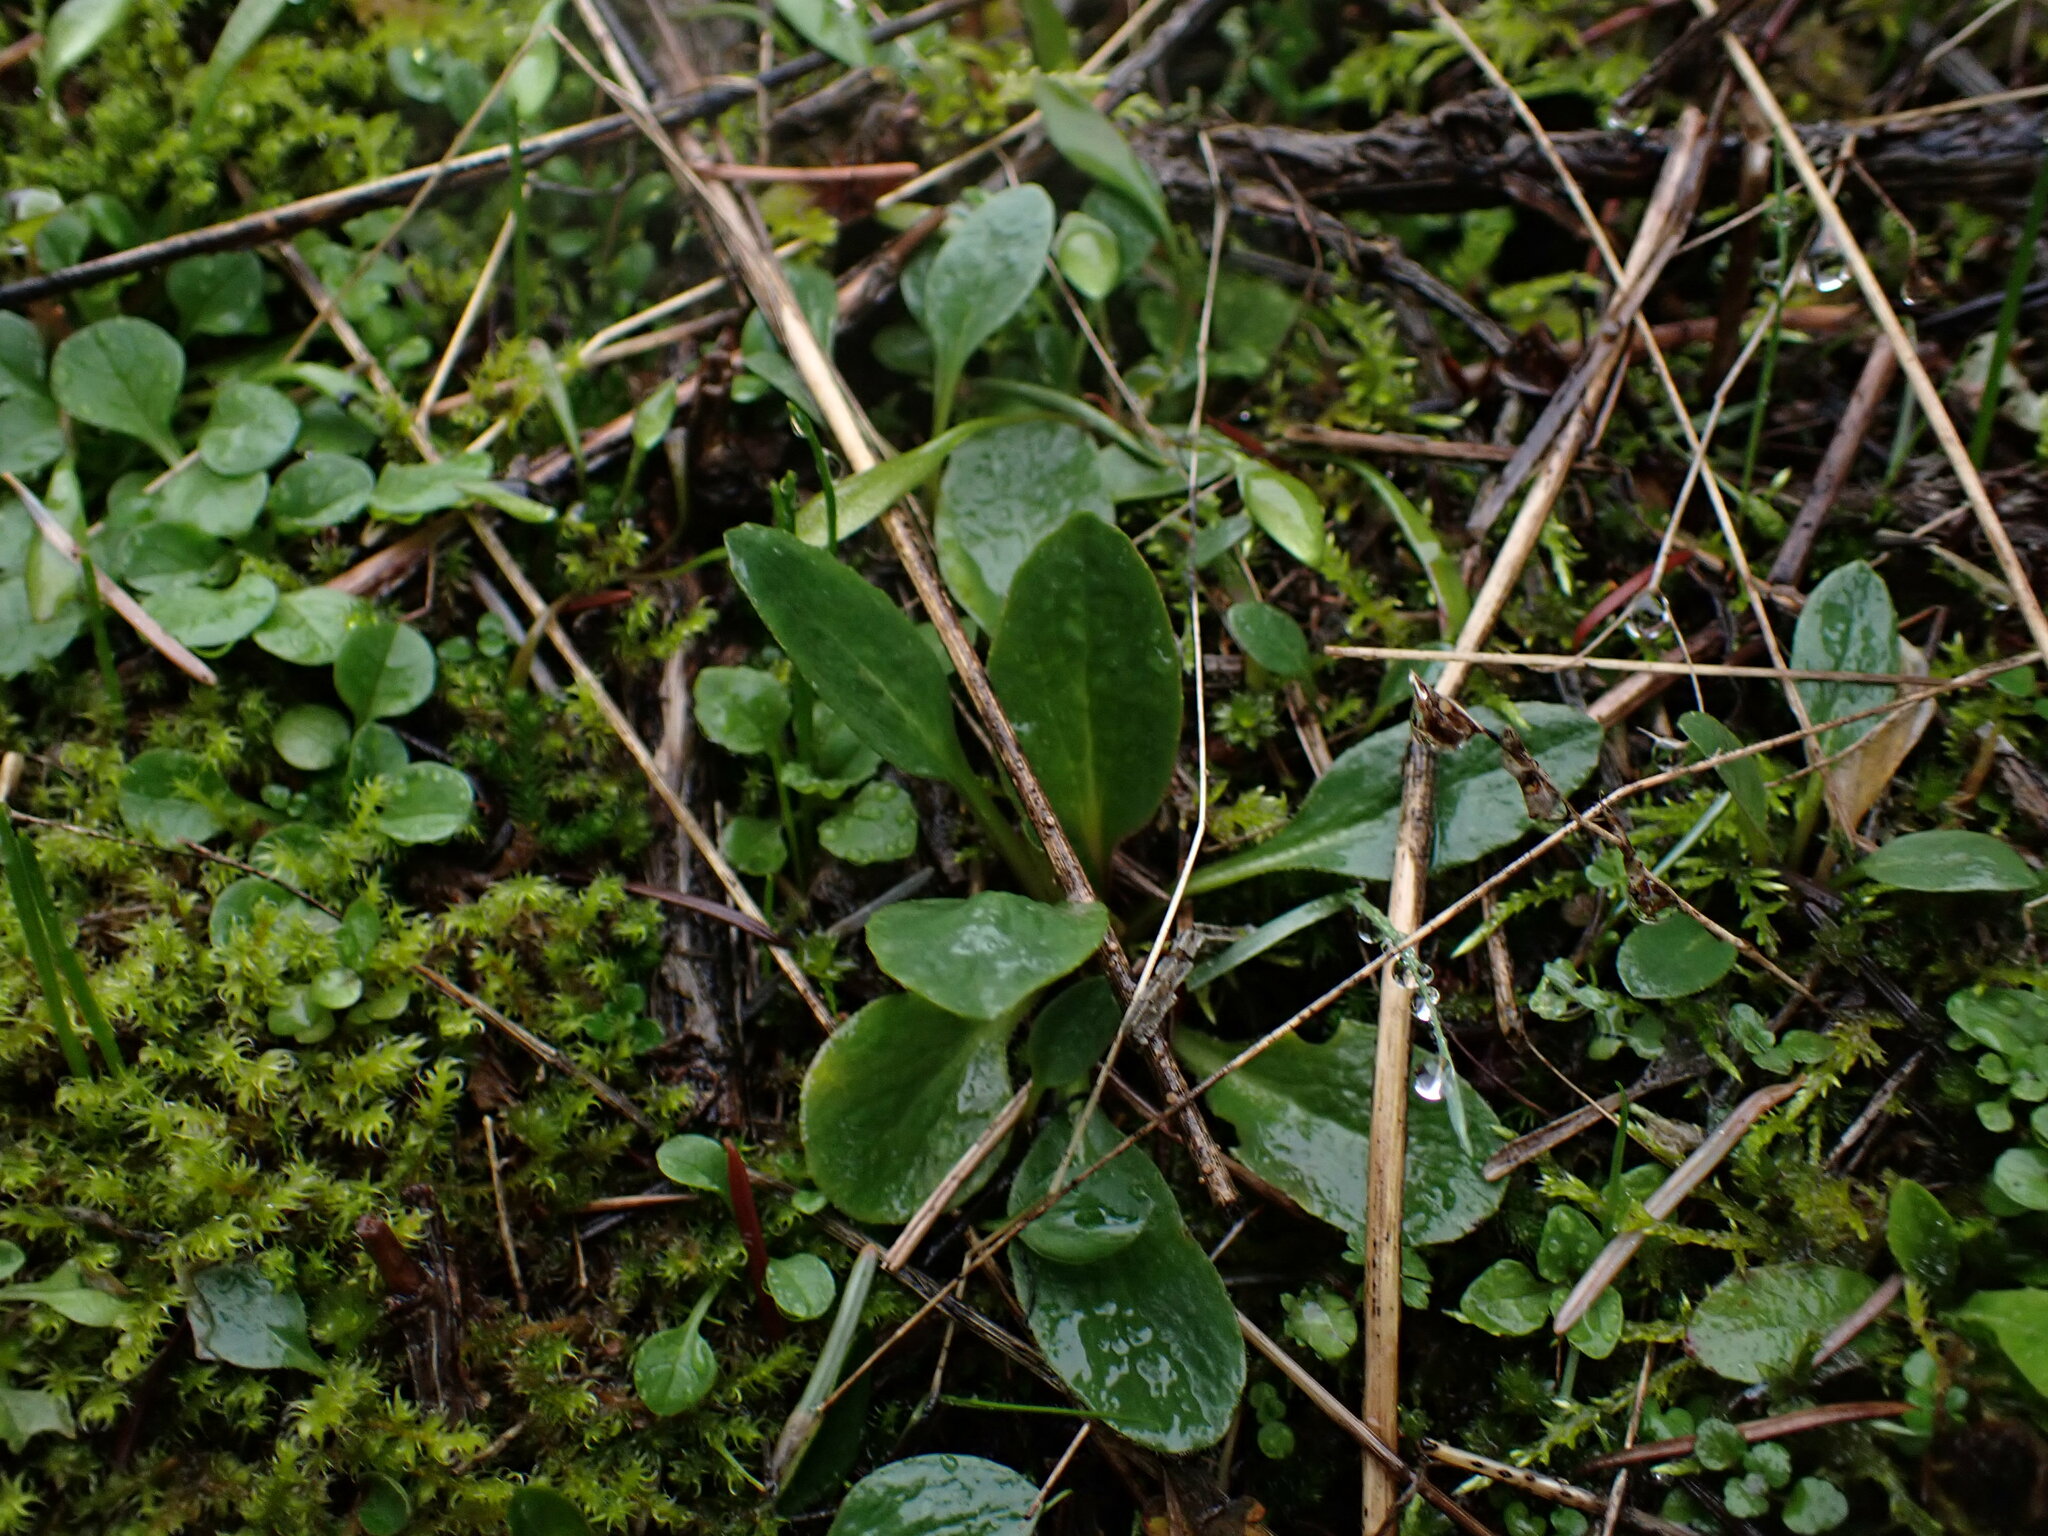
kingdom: Plantae
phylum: Tracheophyta
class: Magnoliopsida
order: Saxifragales
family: Saxifragaceae
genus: Micranthes
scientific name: Micranthes integrifolia
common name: Wholeleaf saxifrage
